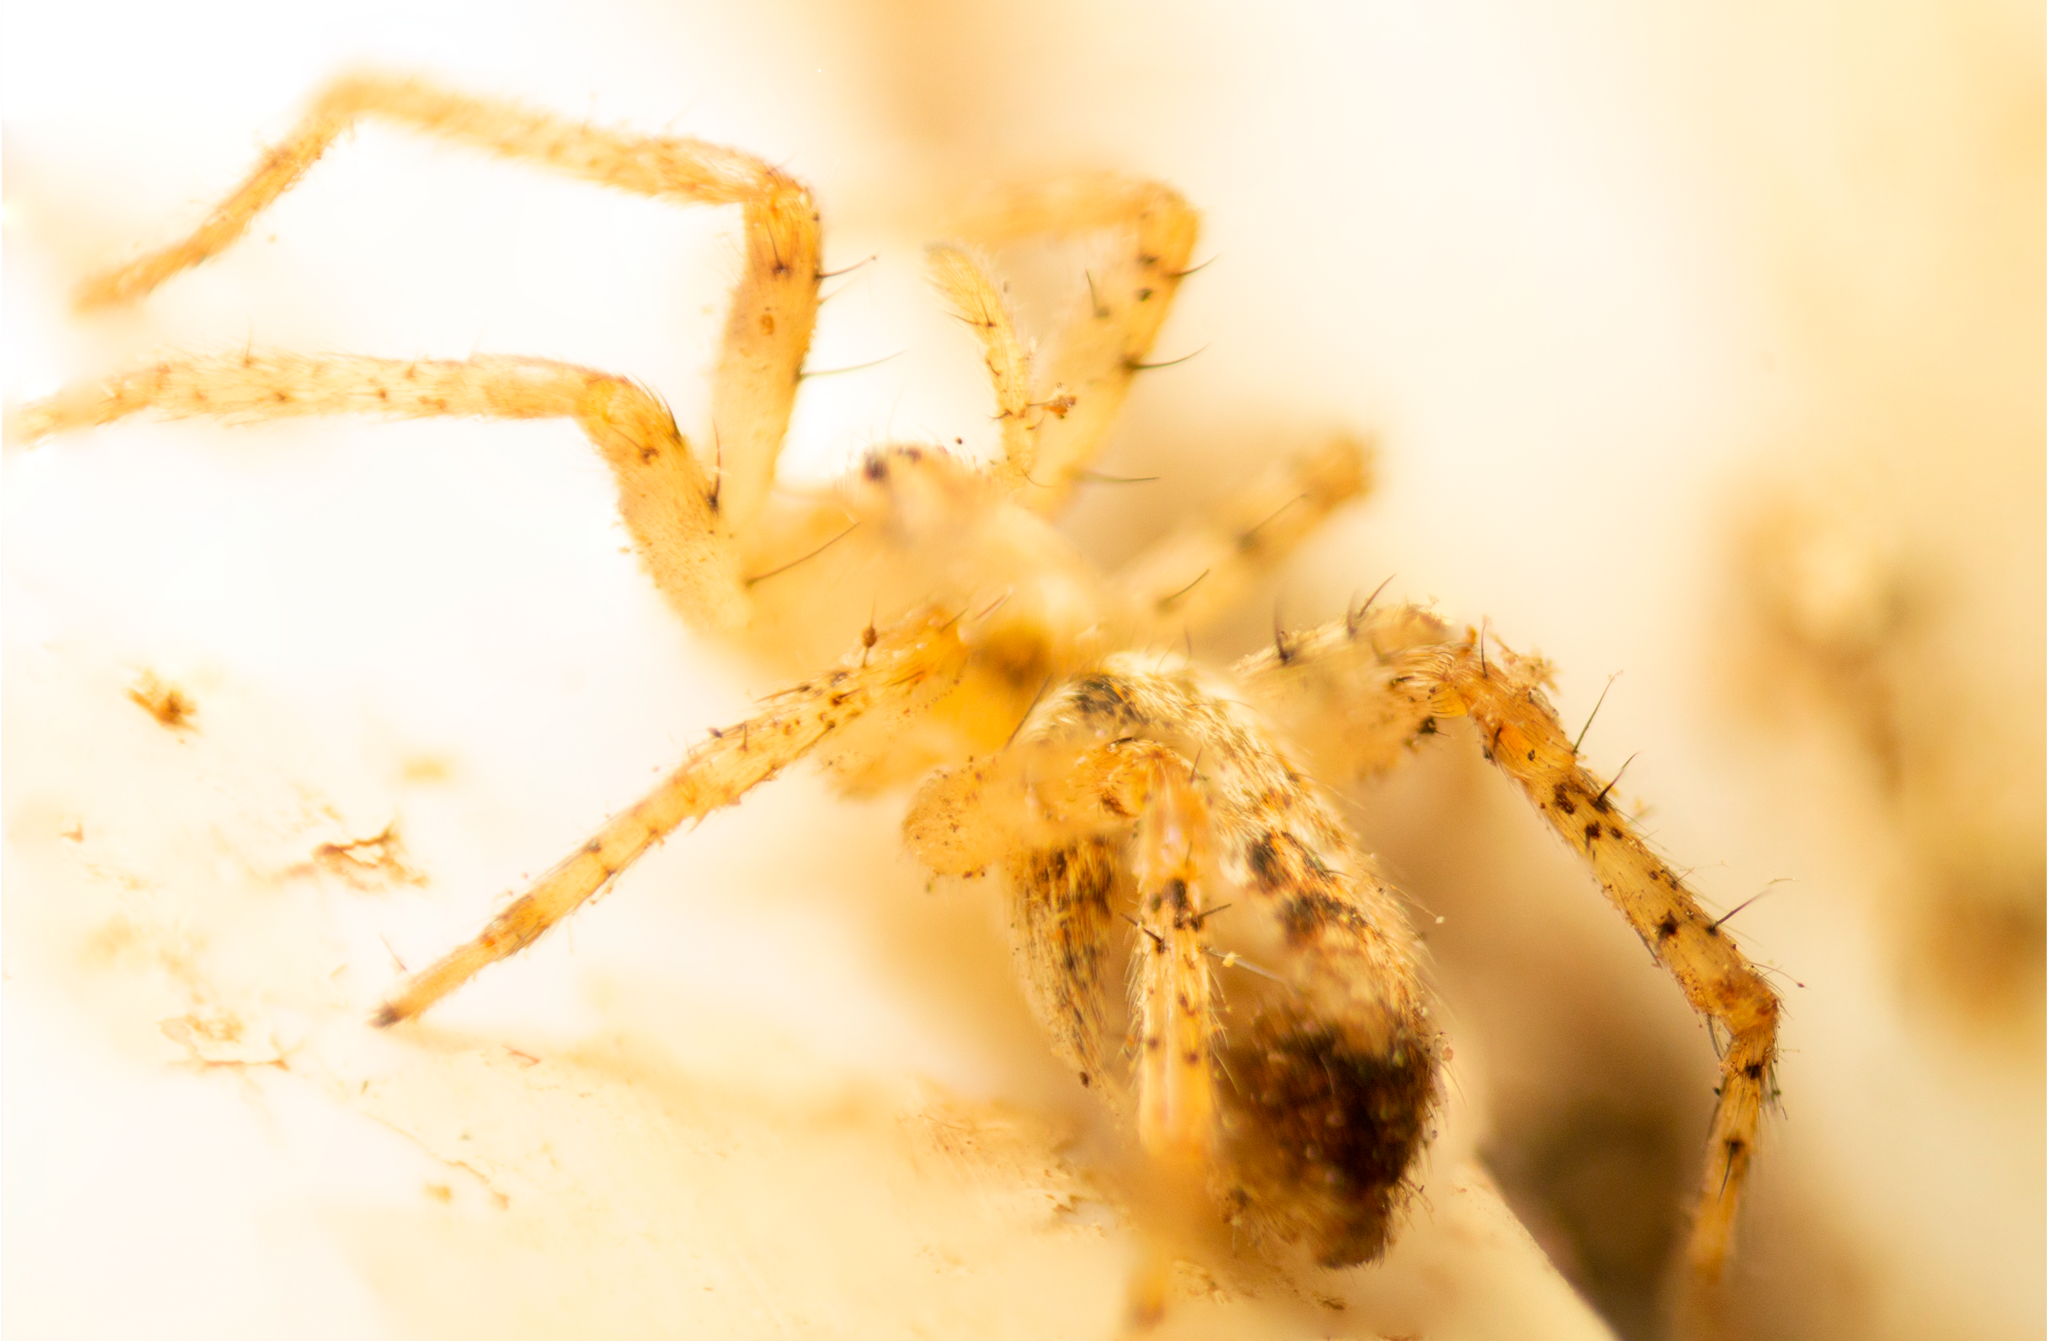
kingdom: Animalia
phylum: Arthropoda
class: Arachnida
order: Araneae
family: Anyphaenidae
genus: Anyphaena
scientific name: Anyphaena accentuata
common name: Buzzing spider
